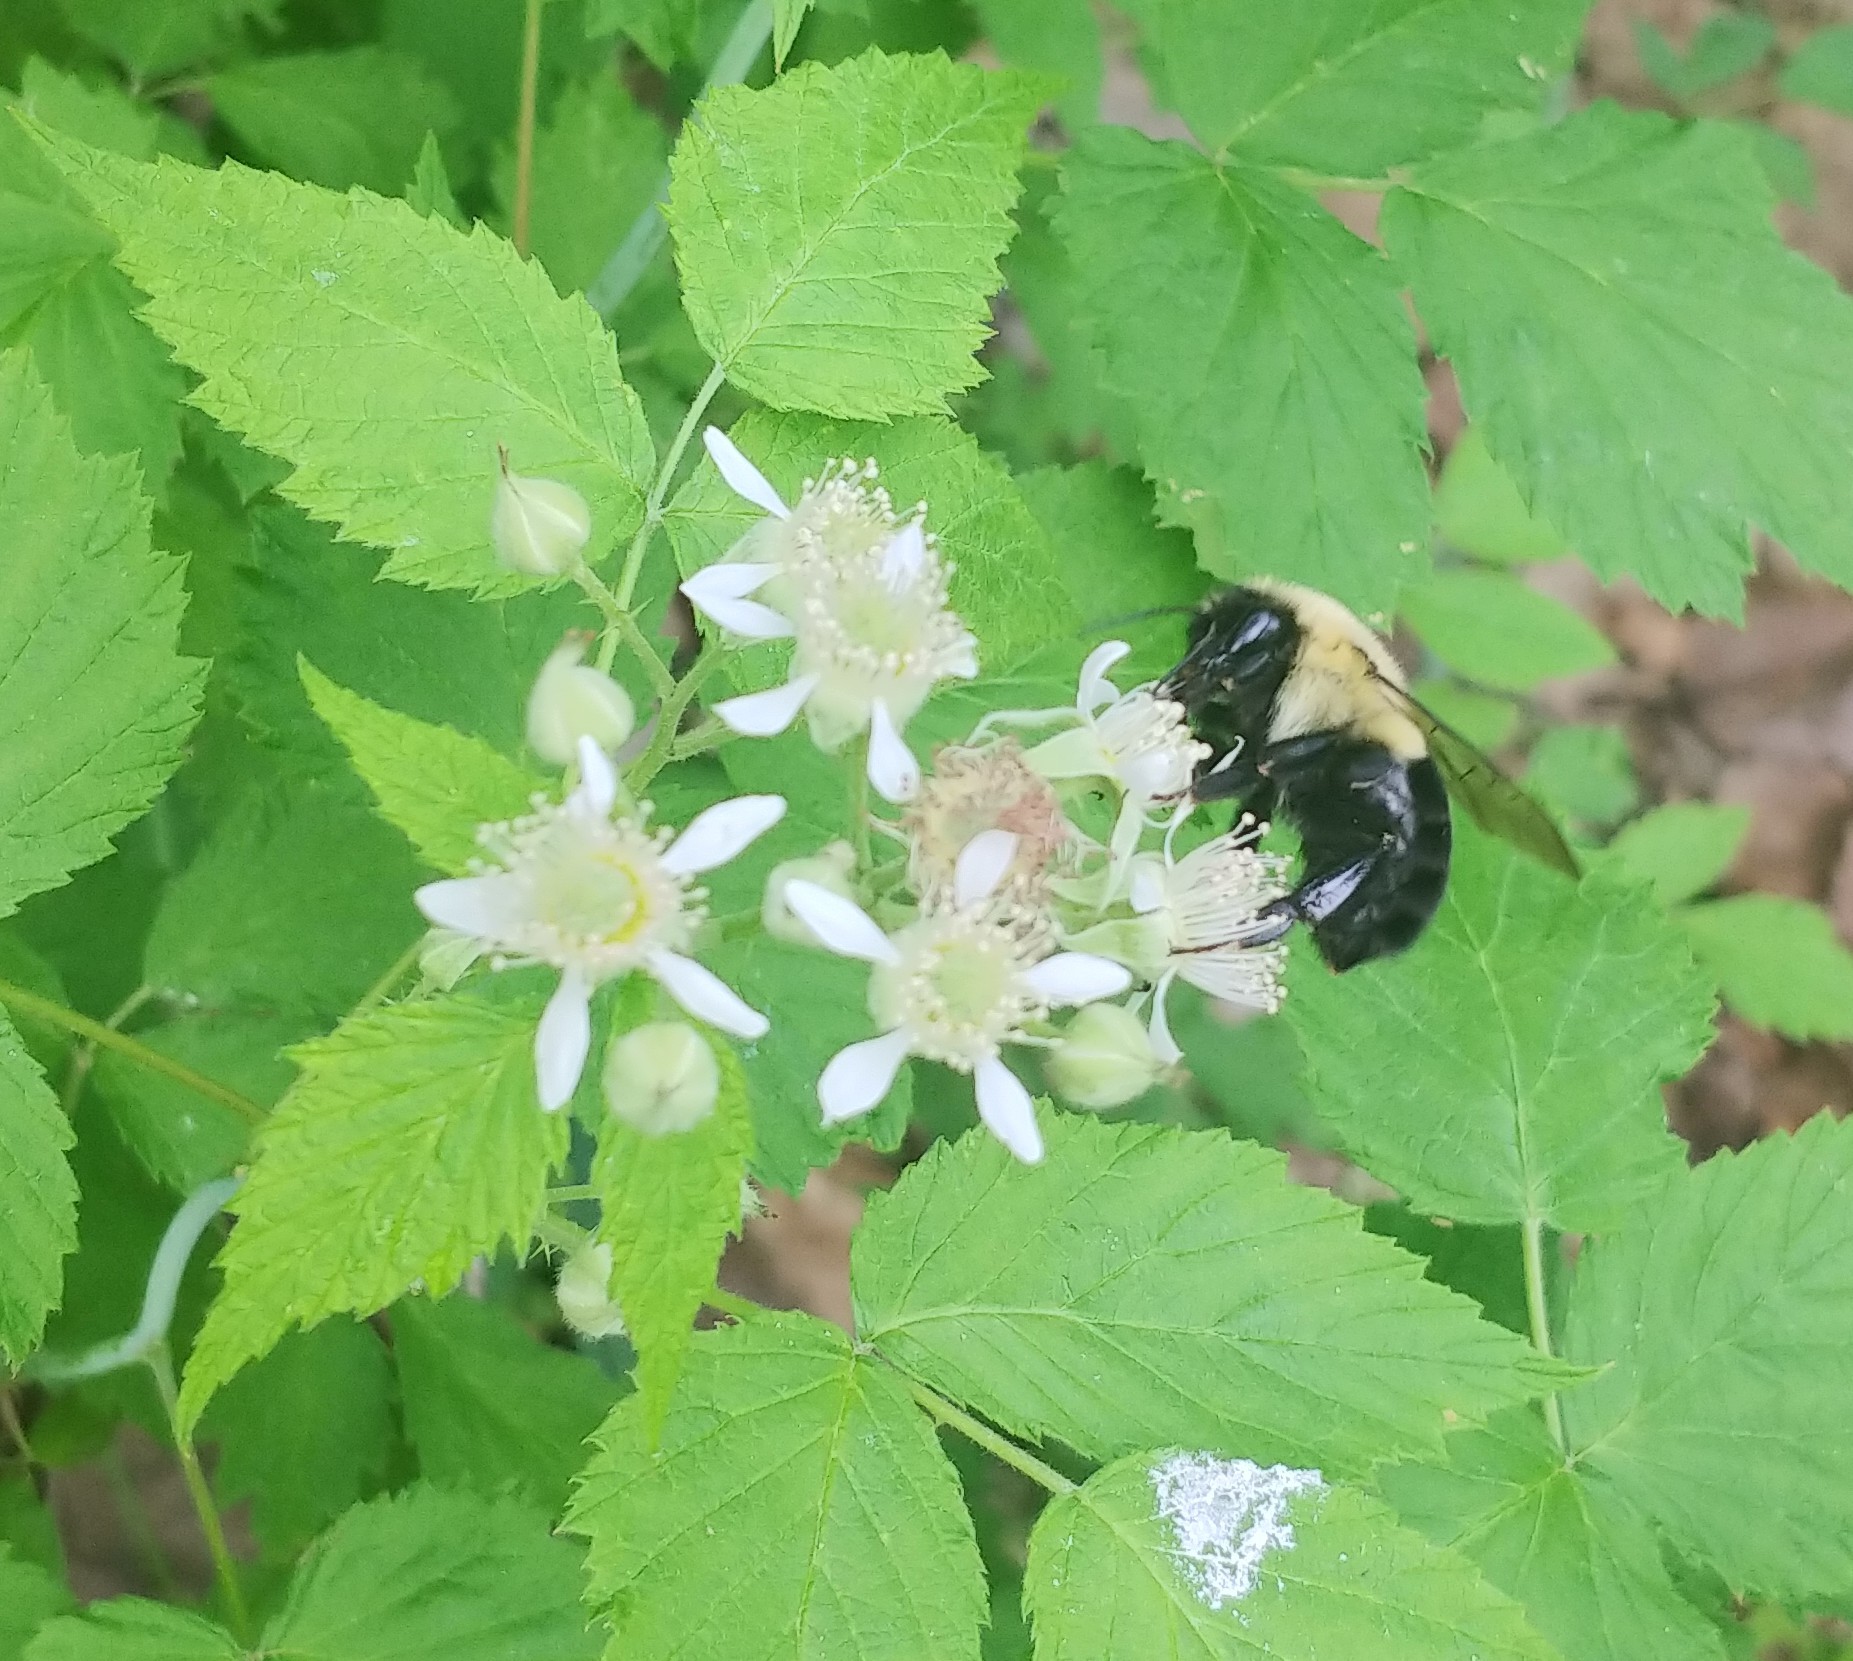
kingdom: Animalia
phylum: Arthropoda
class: Insecta
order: Hymenoptera
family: Apidae
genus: Bombus
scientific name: Bombus impatiens
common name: Common eastern bumble bee
